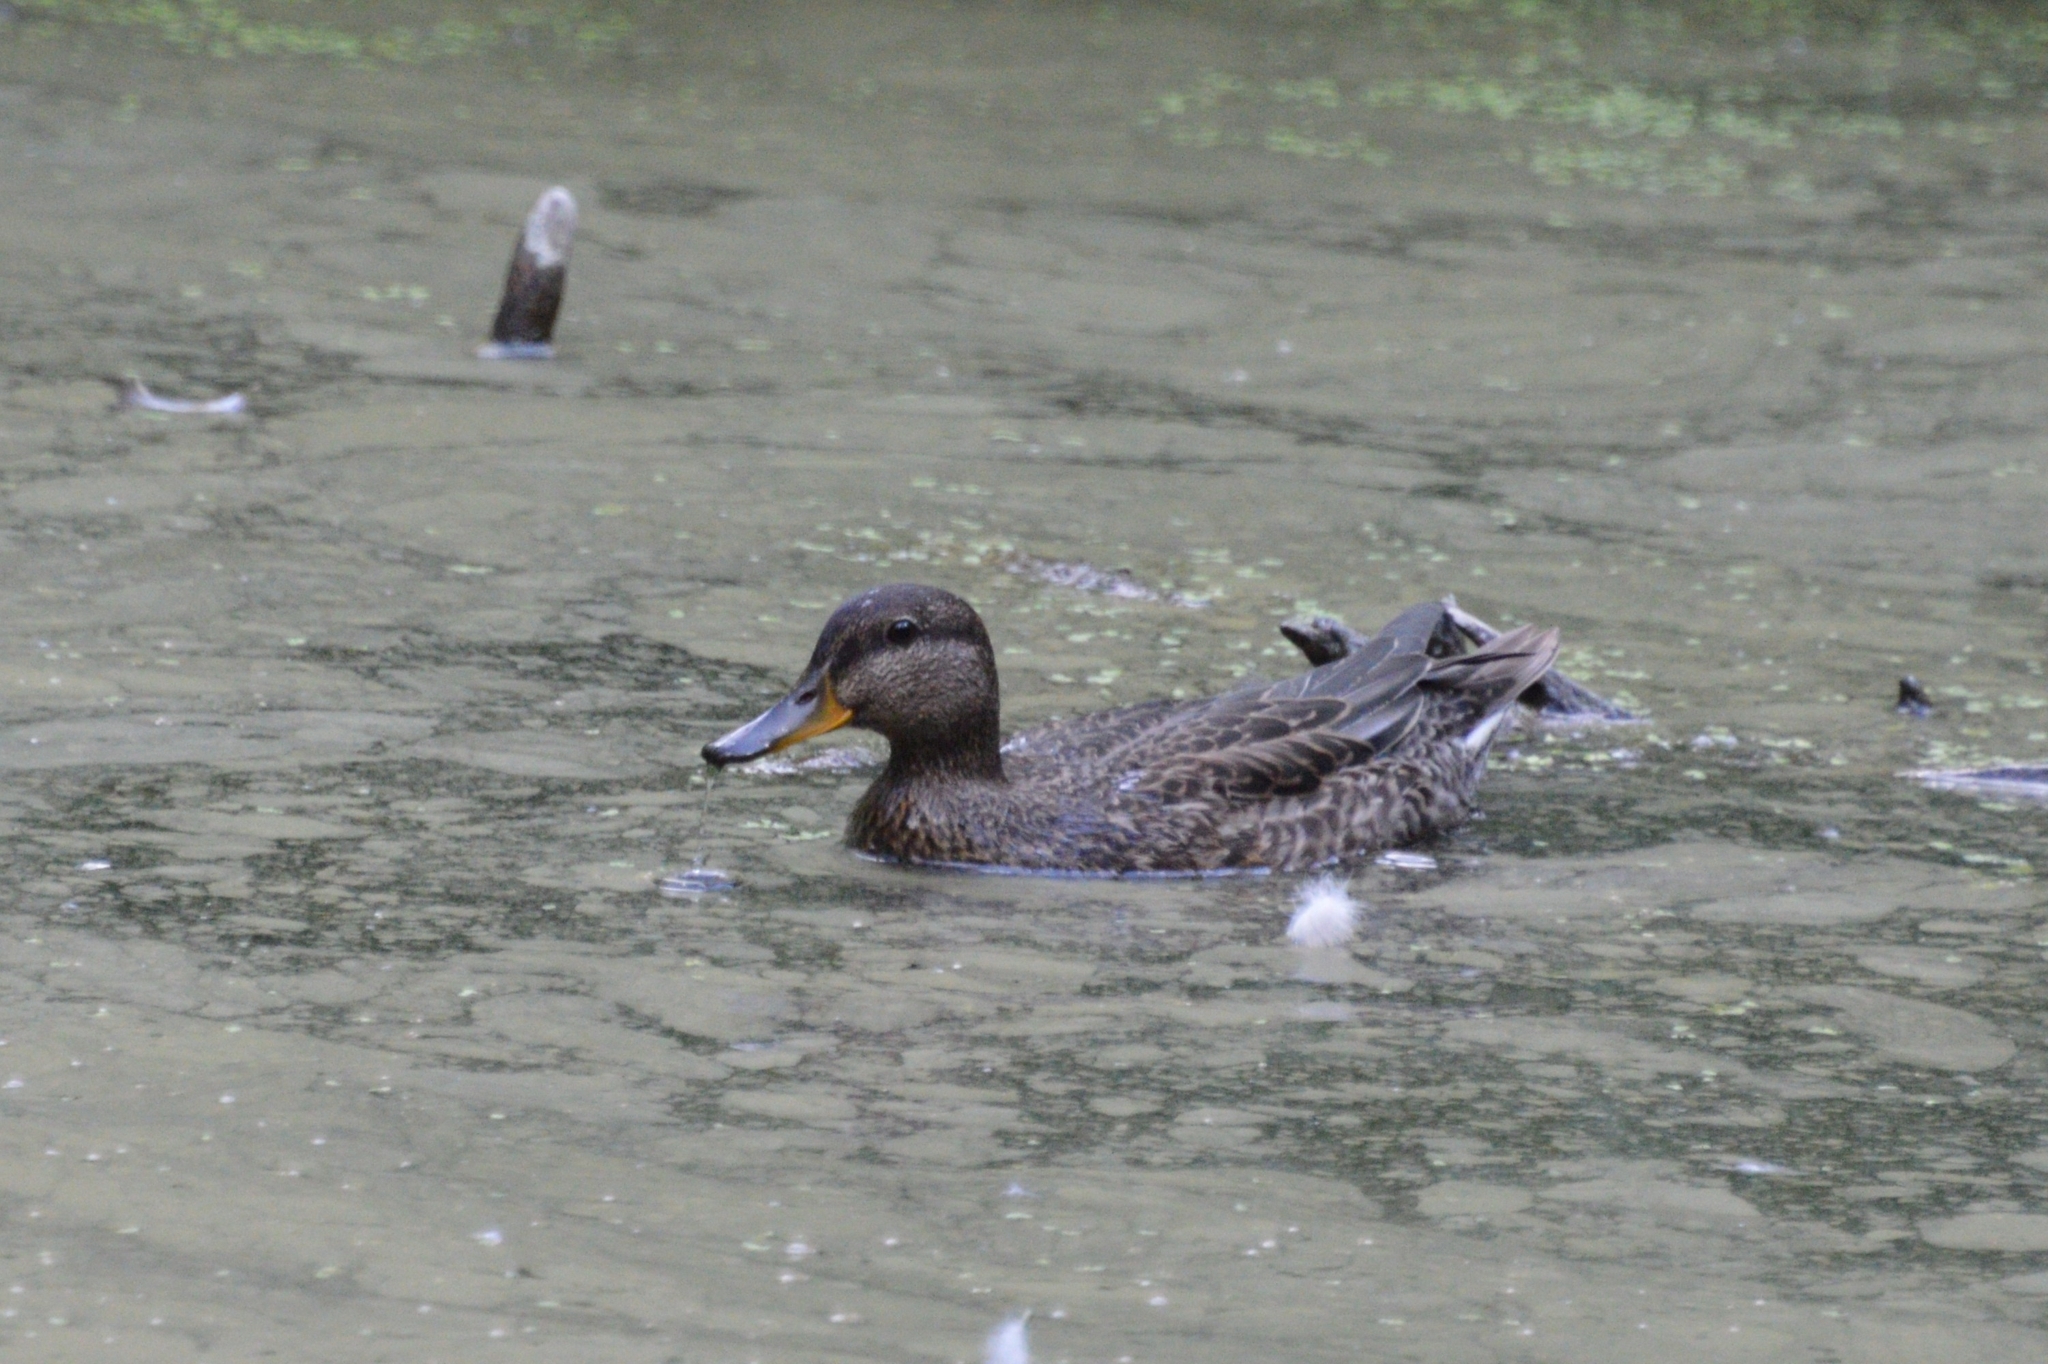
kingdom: Animalia
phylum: Chordata
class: Aves
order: Anseriformes
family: Anatidae
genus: Anas
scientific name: Anas crecca
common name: Eurasian teal
